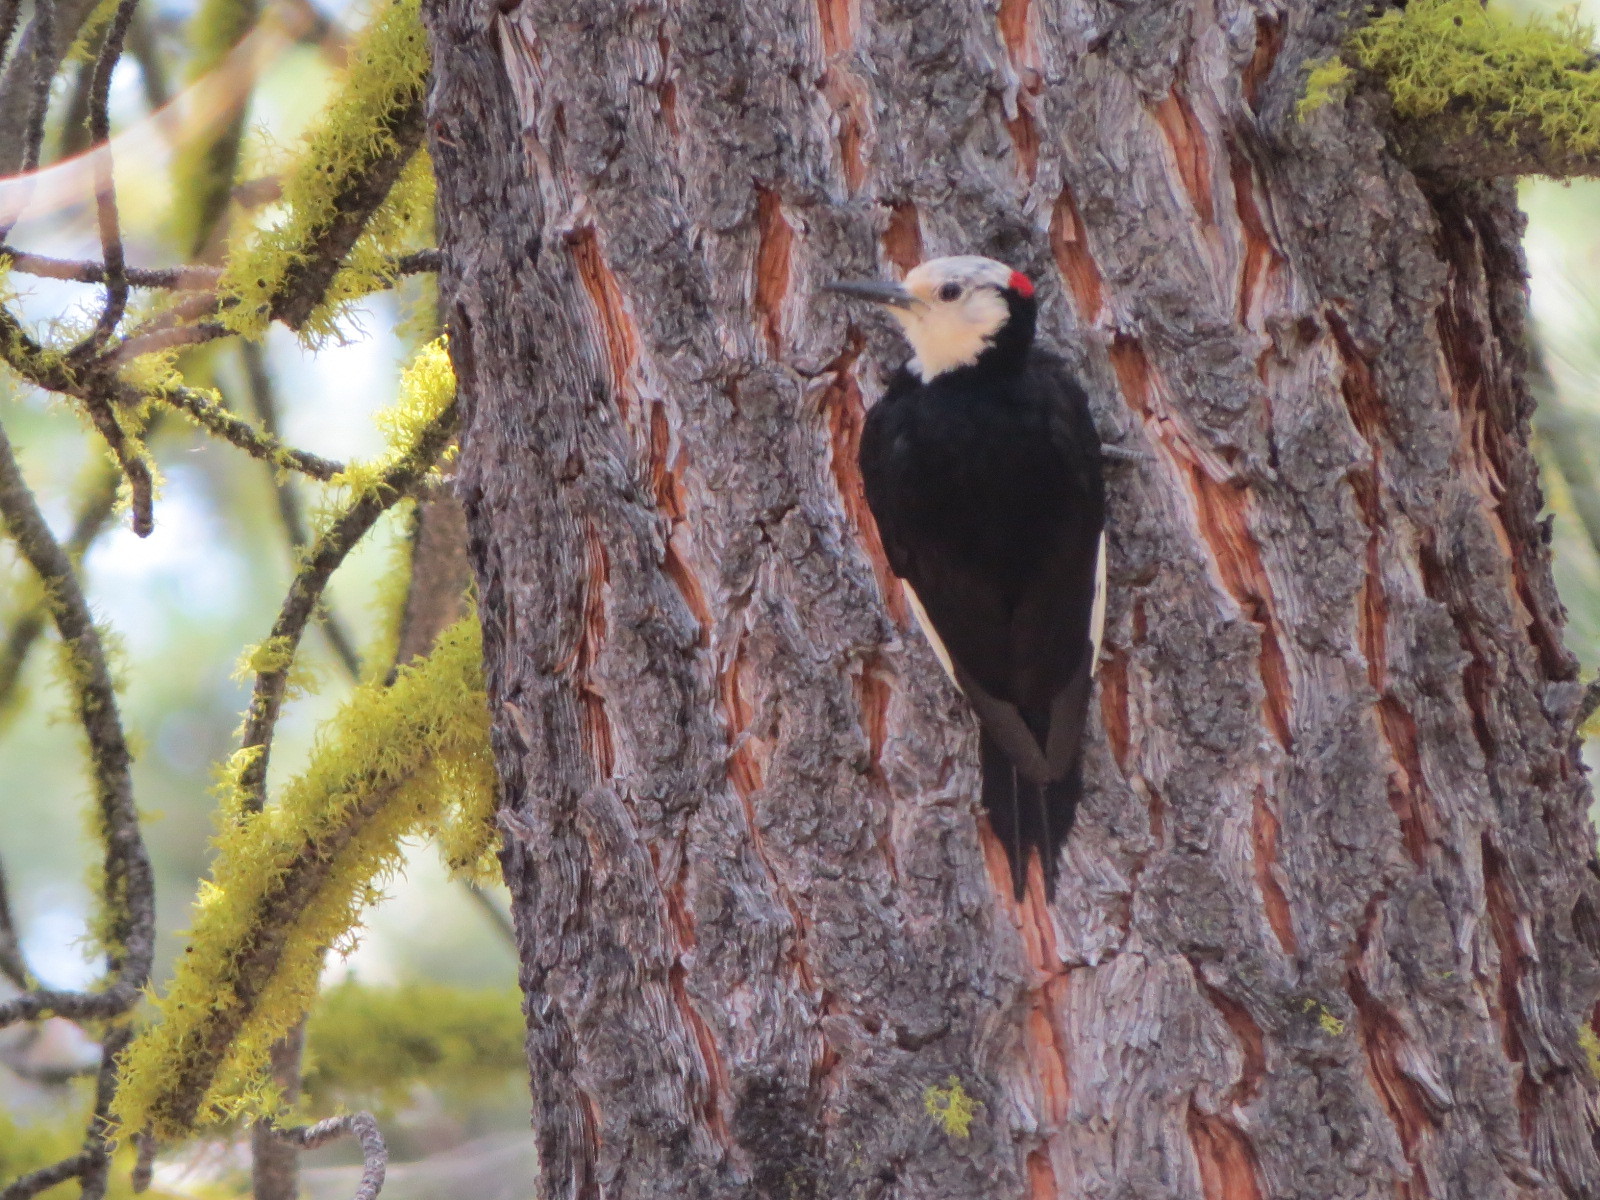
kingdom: Animalia
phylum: Chordata
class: Aves
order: Piciformes
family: Picidae
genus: Leuconotopicus
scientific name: Leuconotopicus albolarvatus
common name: White-headed woodpecker
